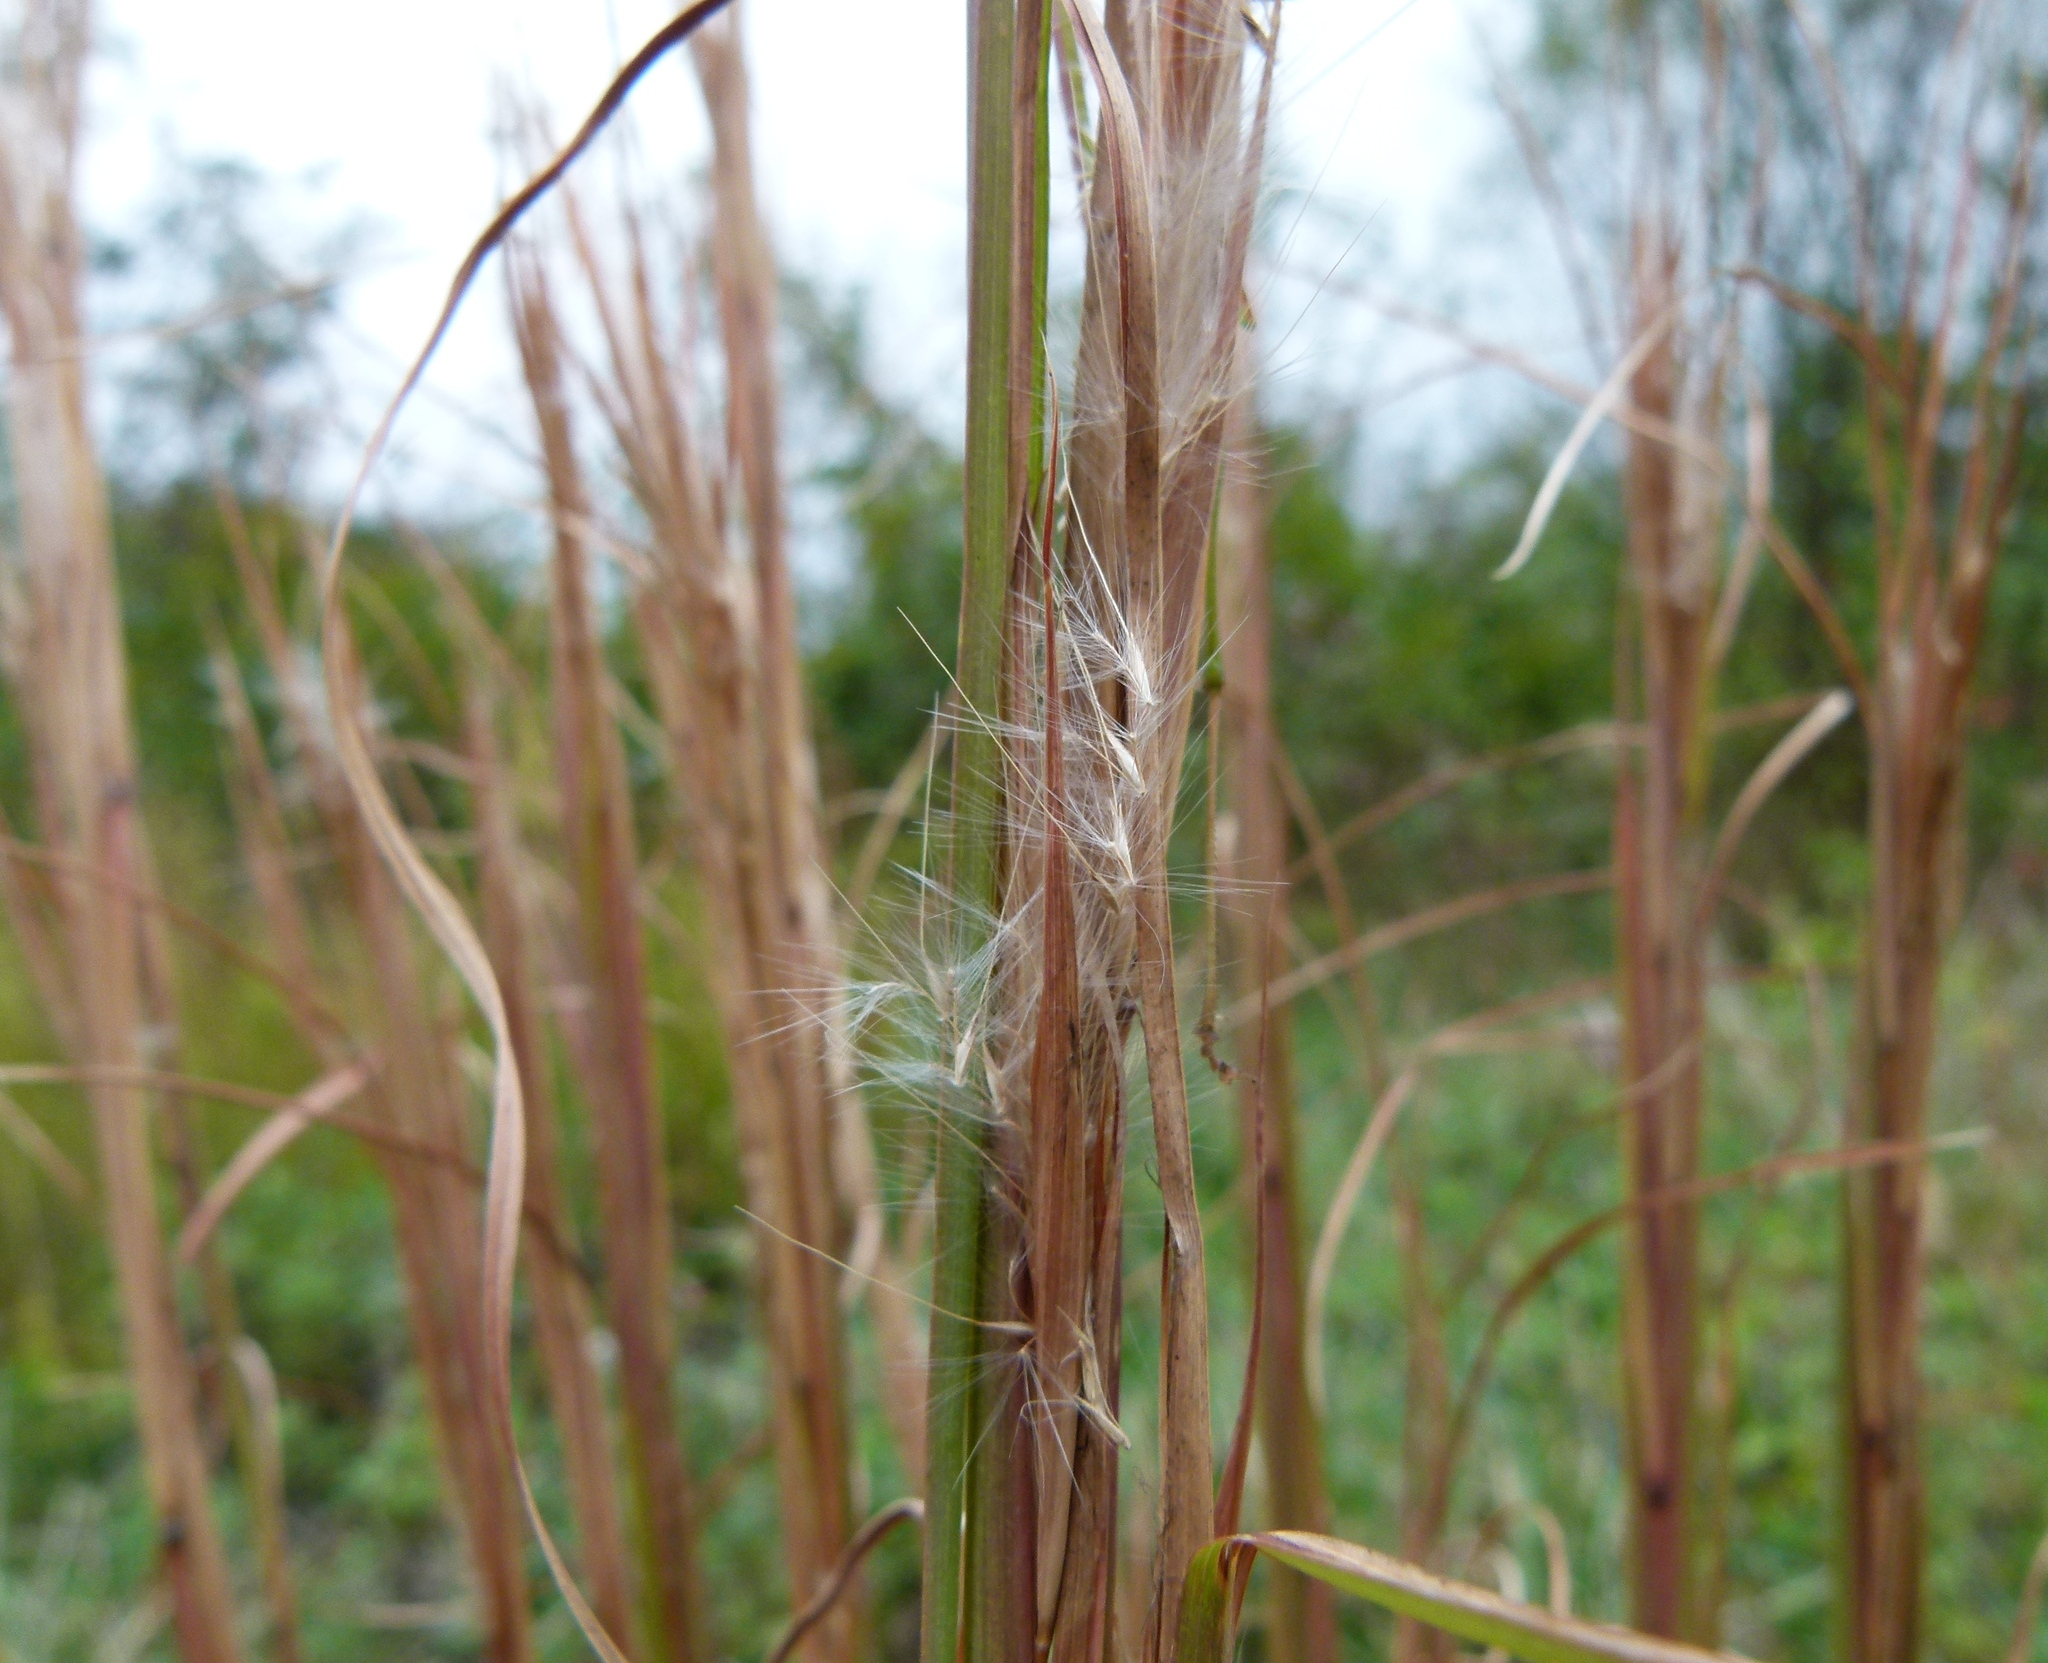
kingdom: Plantae
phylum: Tracheophyta
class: Liliopsida
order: Poales
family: Poaceae
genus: Andropogon
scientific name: Andropogon virginicus
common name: Broomsedge bluestem
